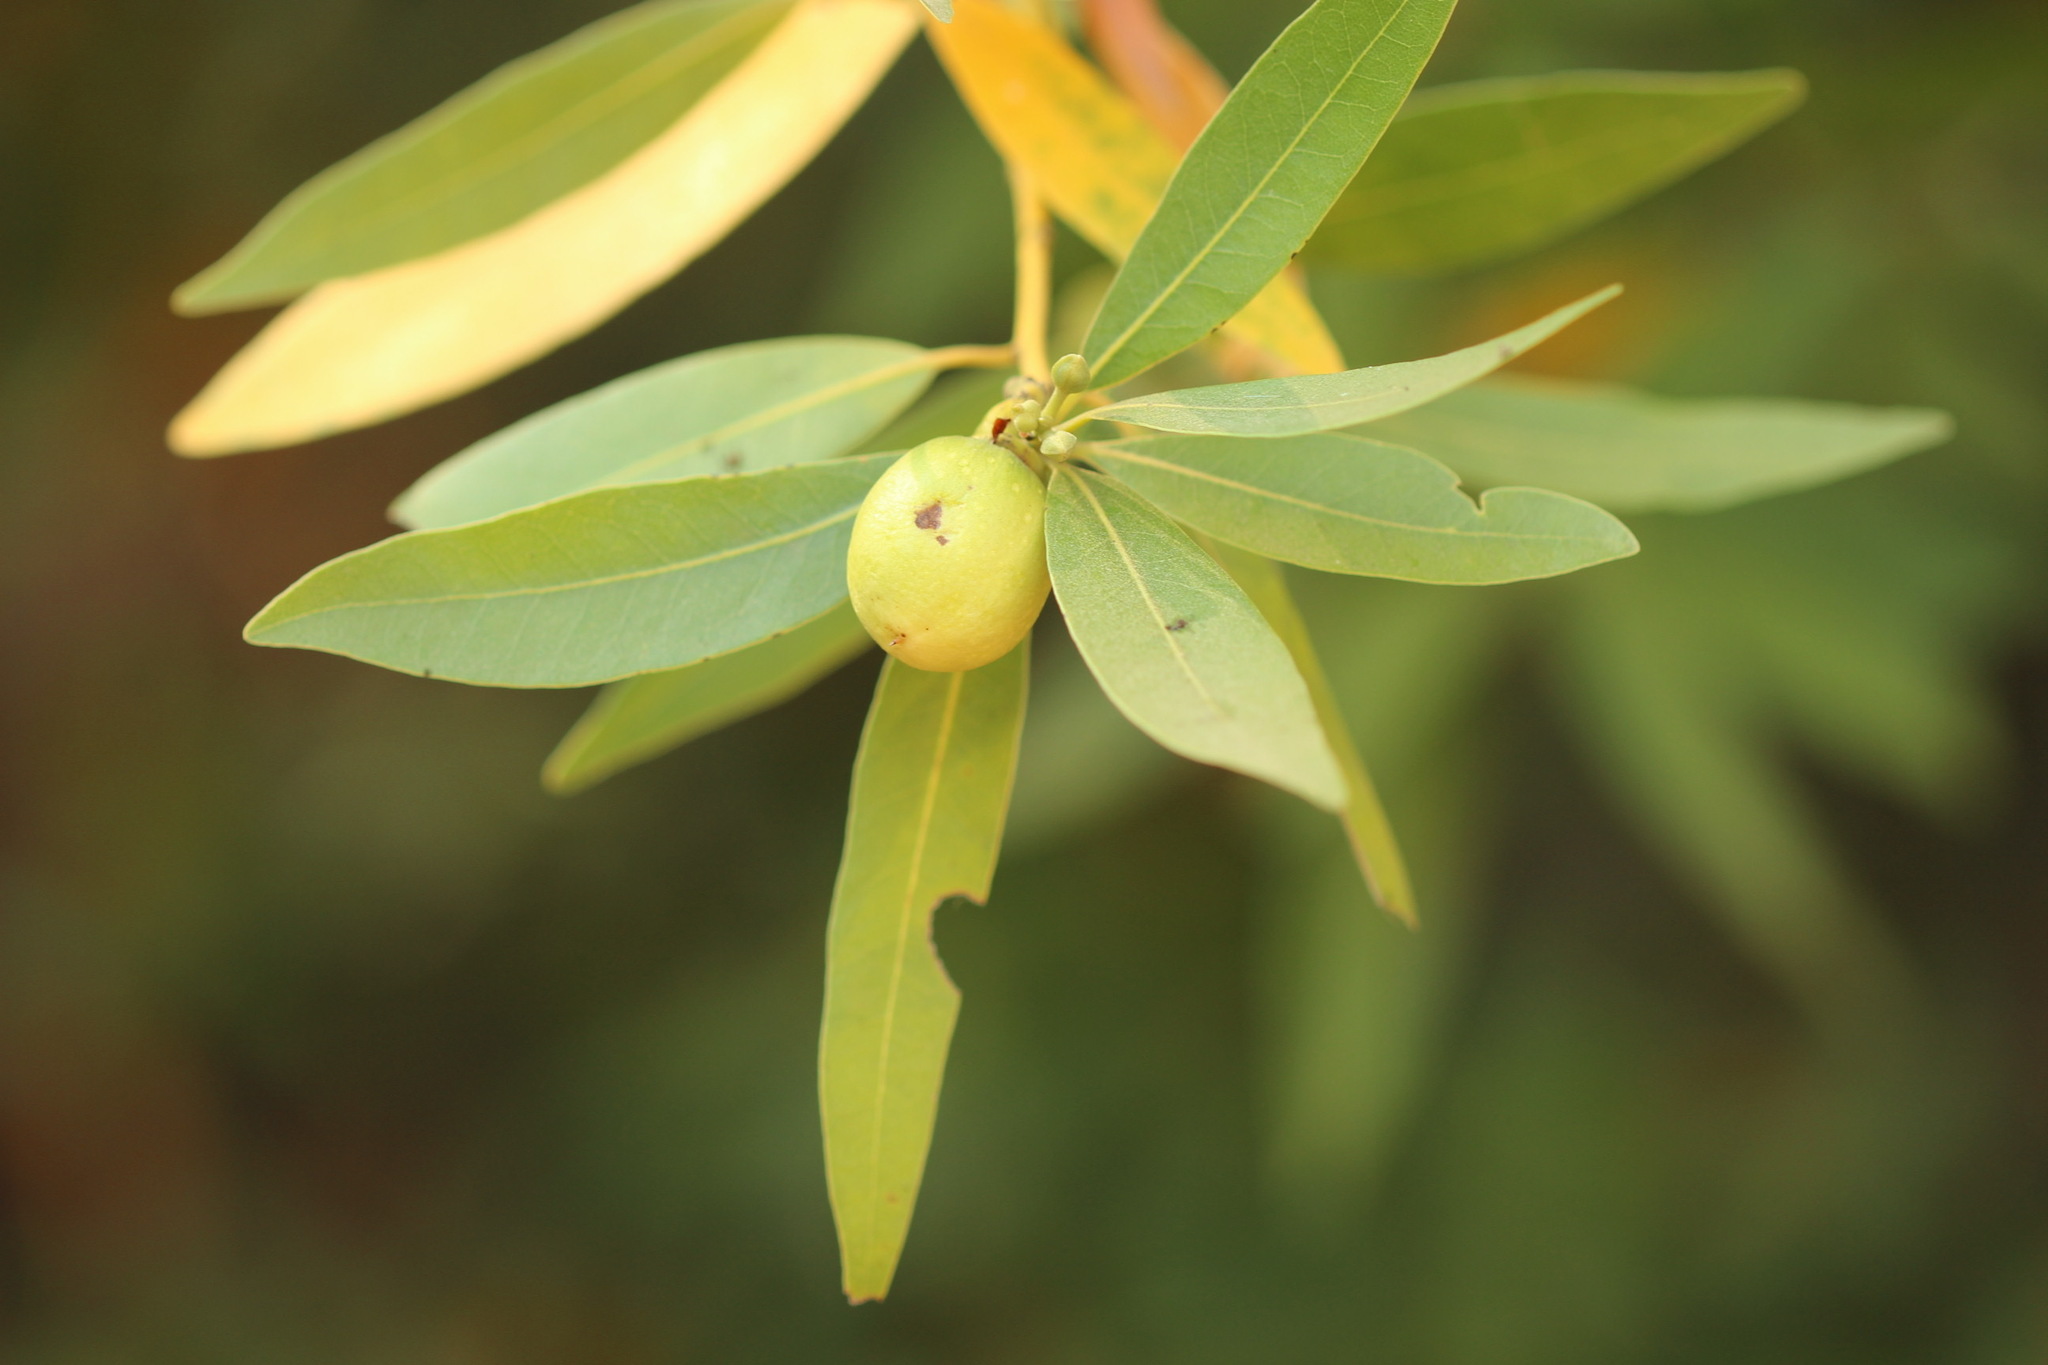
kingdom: Plantae
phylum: Tracheophyta
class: Magnoliopsida
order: Laurales
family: Lauraceae
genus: Umbellularia
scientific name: Umbellularia californica
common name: California bay
